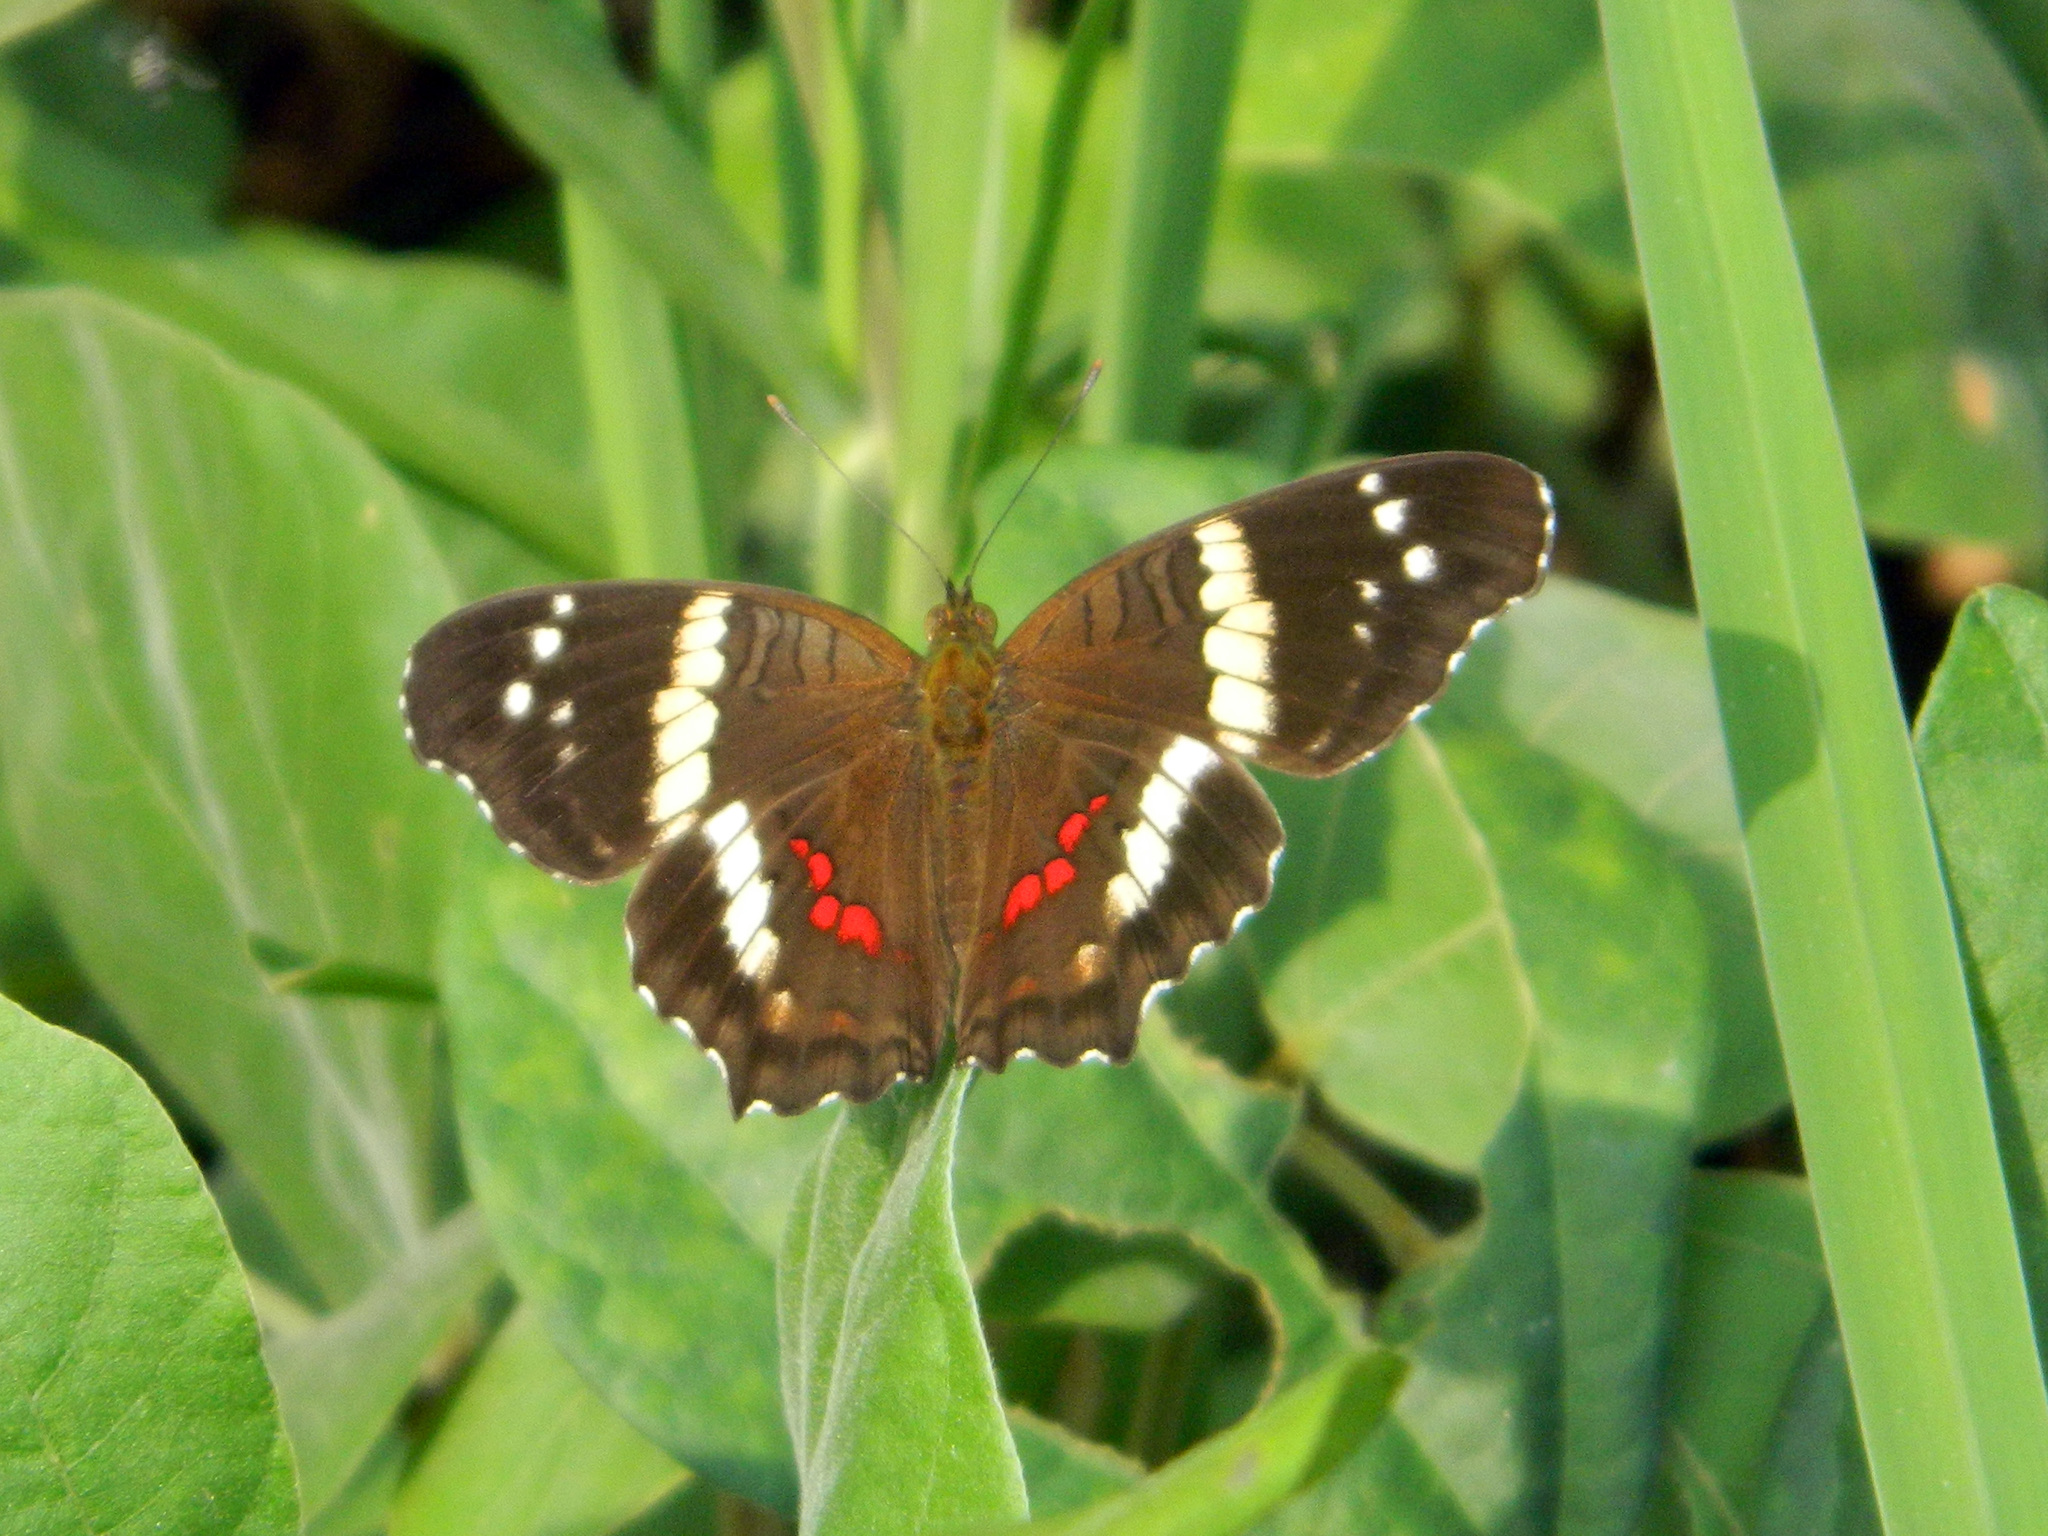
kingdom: Animalia
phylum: Arthropoda
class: Insecta
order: Lepidoptera
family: Nymphalidae
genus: Anartia
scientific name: Anartia fatima
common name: Banded peacock
